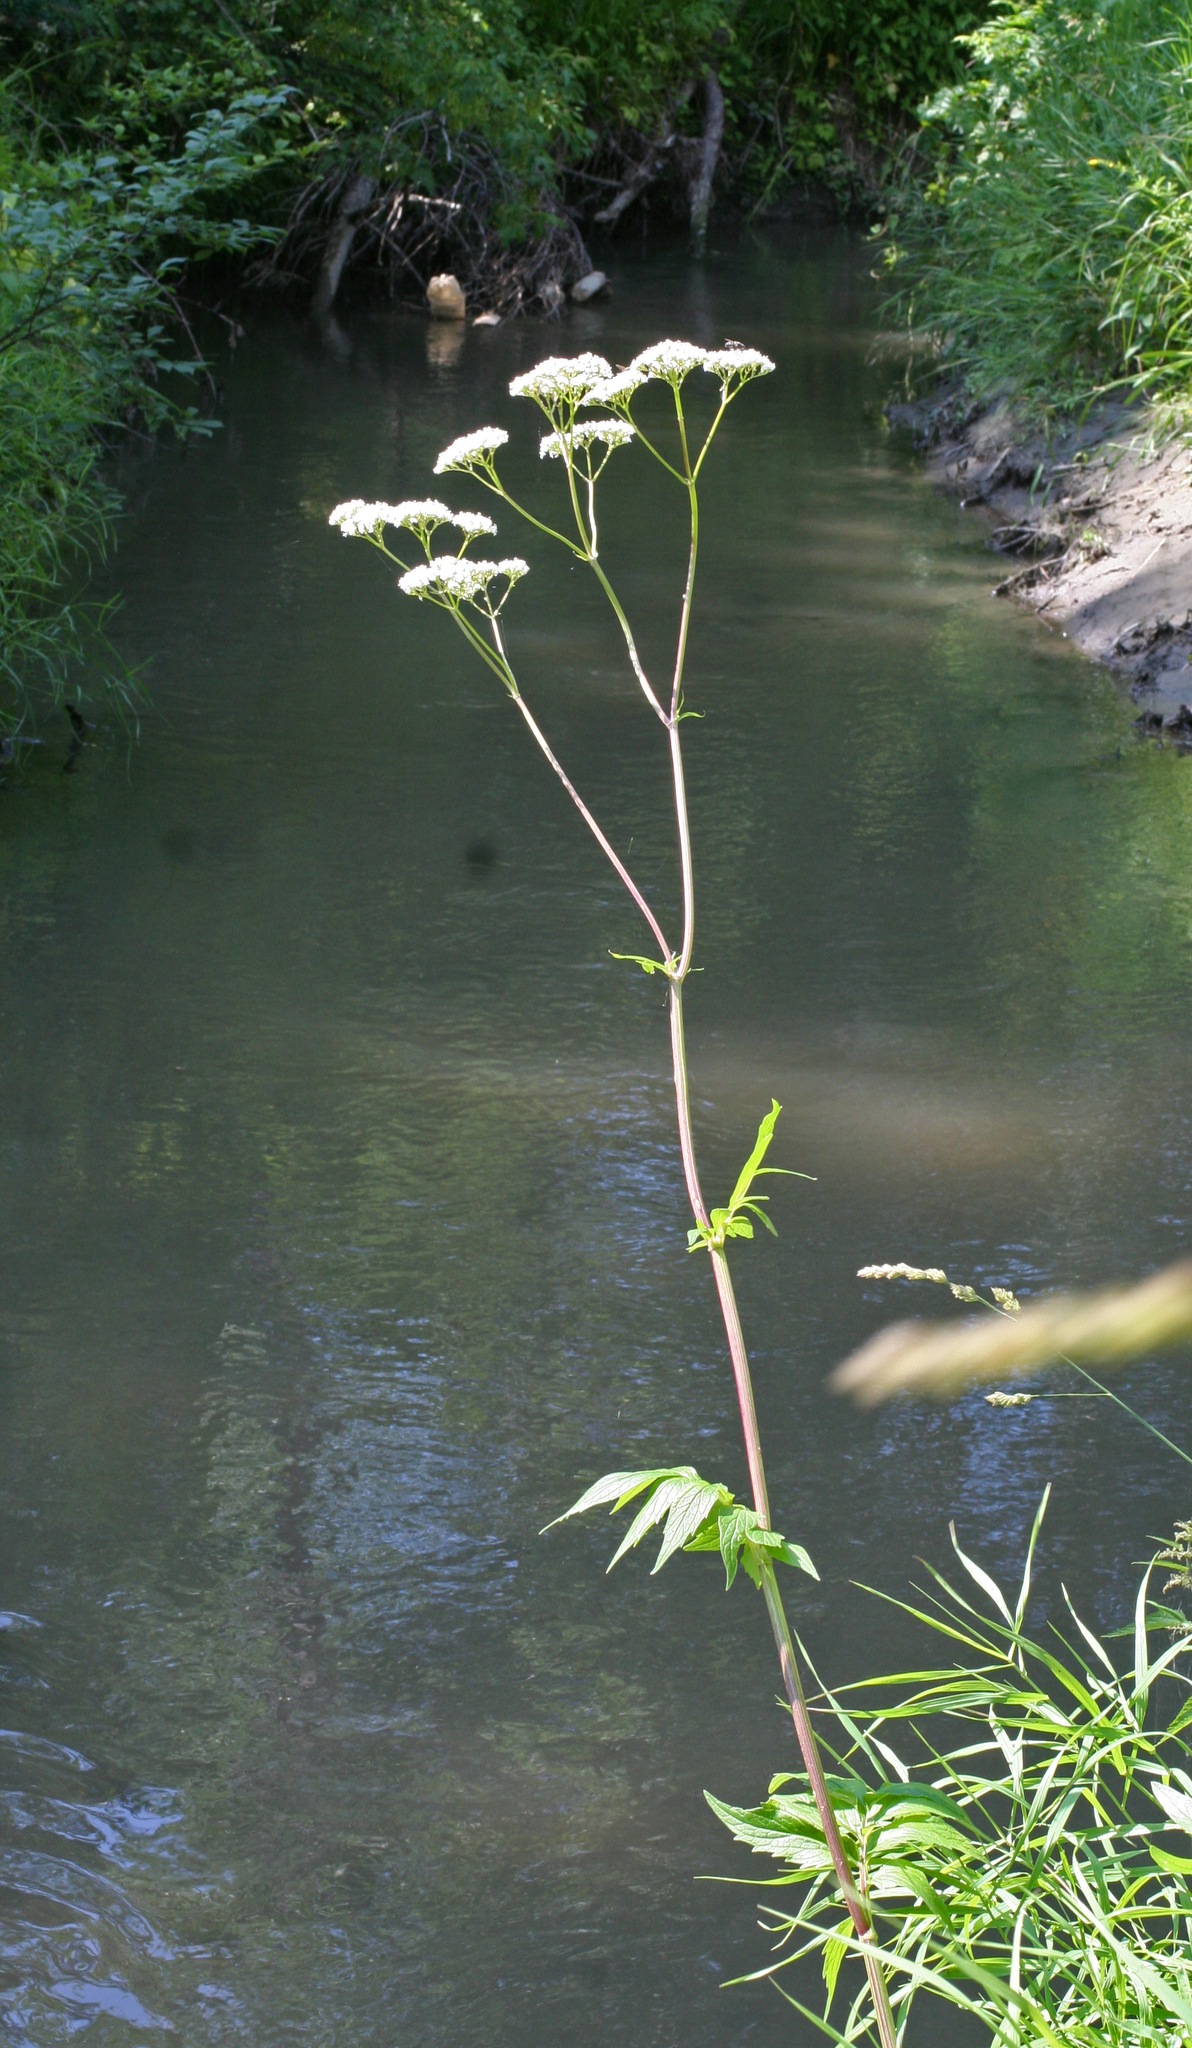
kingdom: Plantae
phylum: Tracheophyta
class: Magnoliopsida
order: Dipsacales
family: Caprifoliaceae
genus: Valeriana
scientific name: Valeriana officinalis
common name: Common valerian
